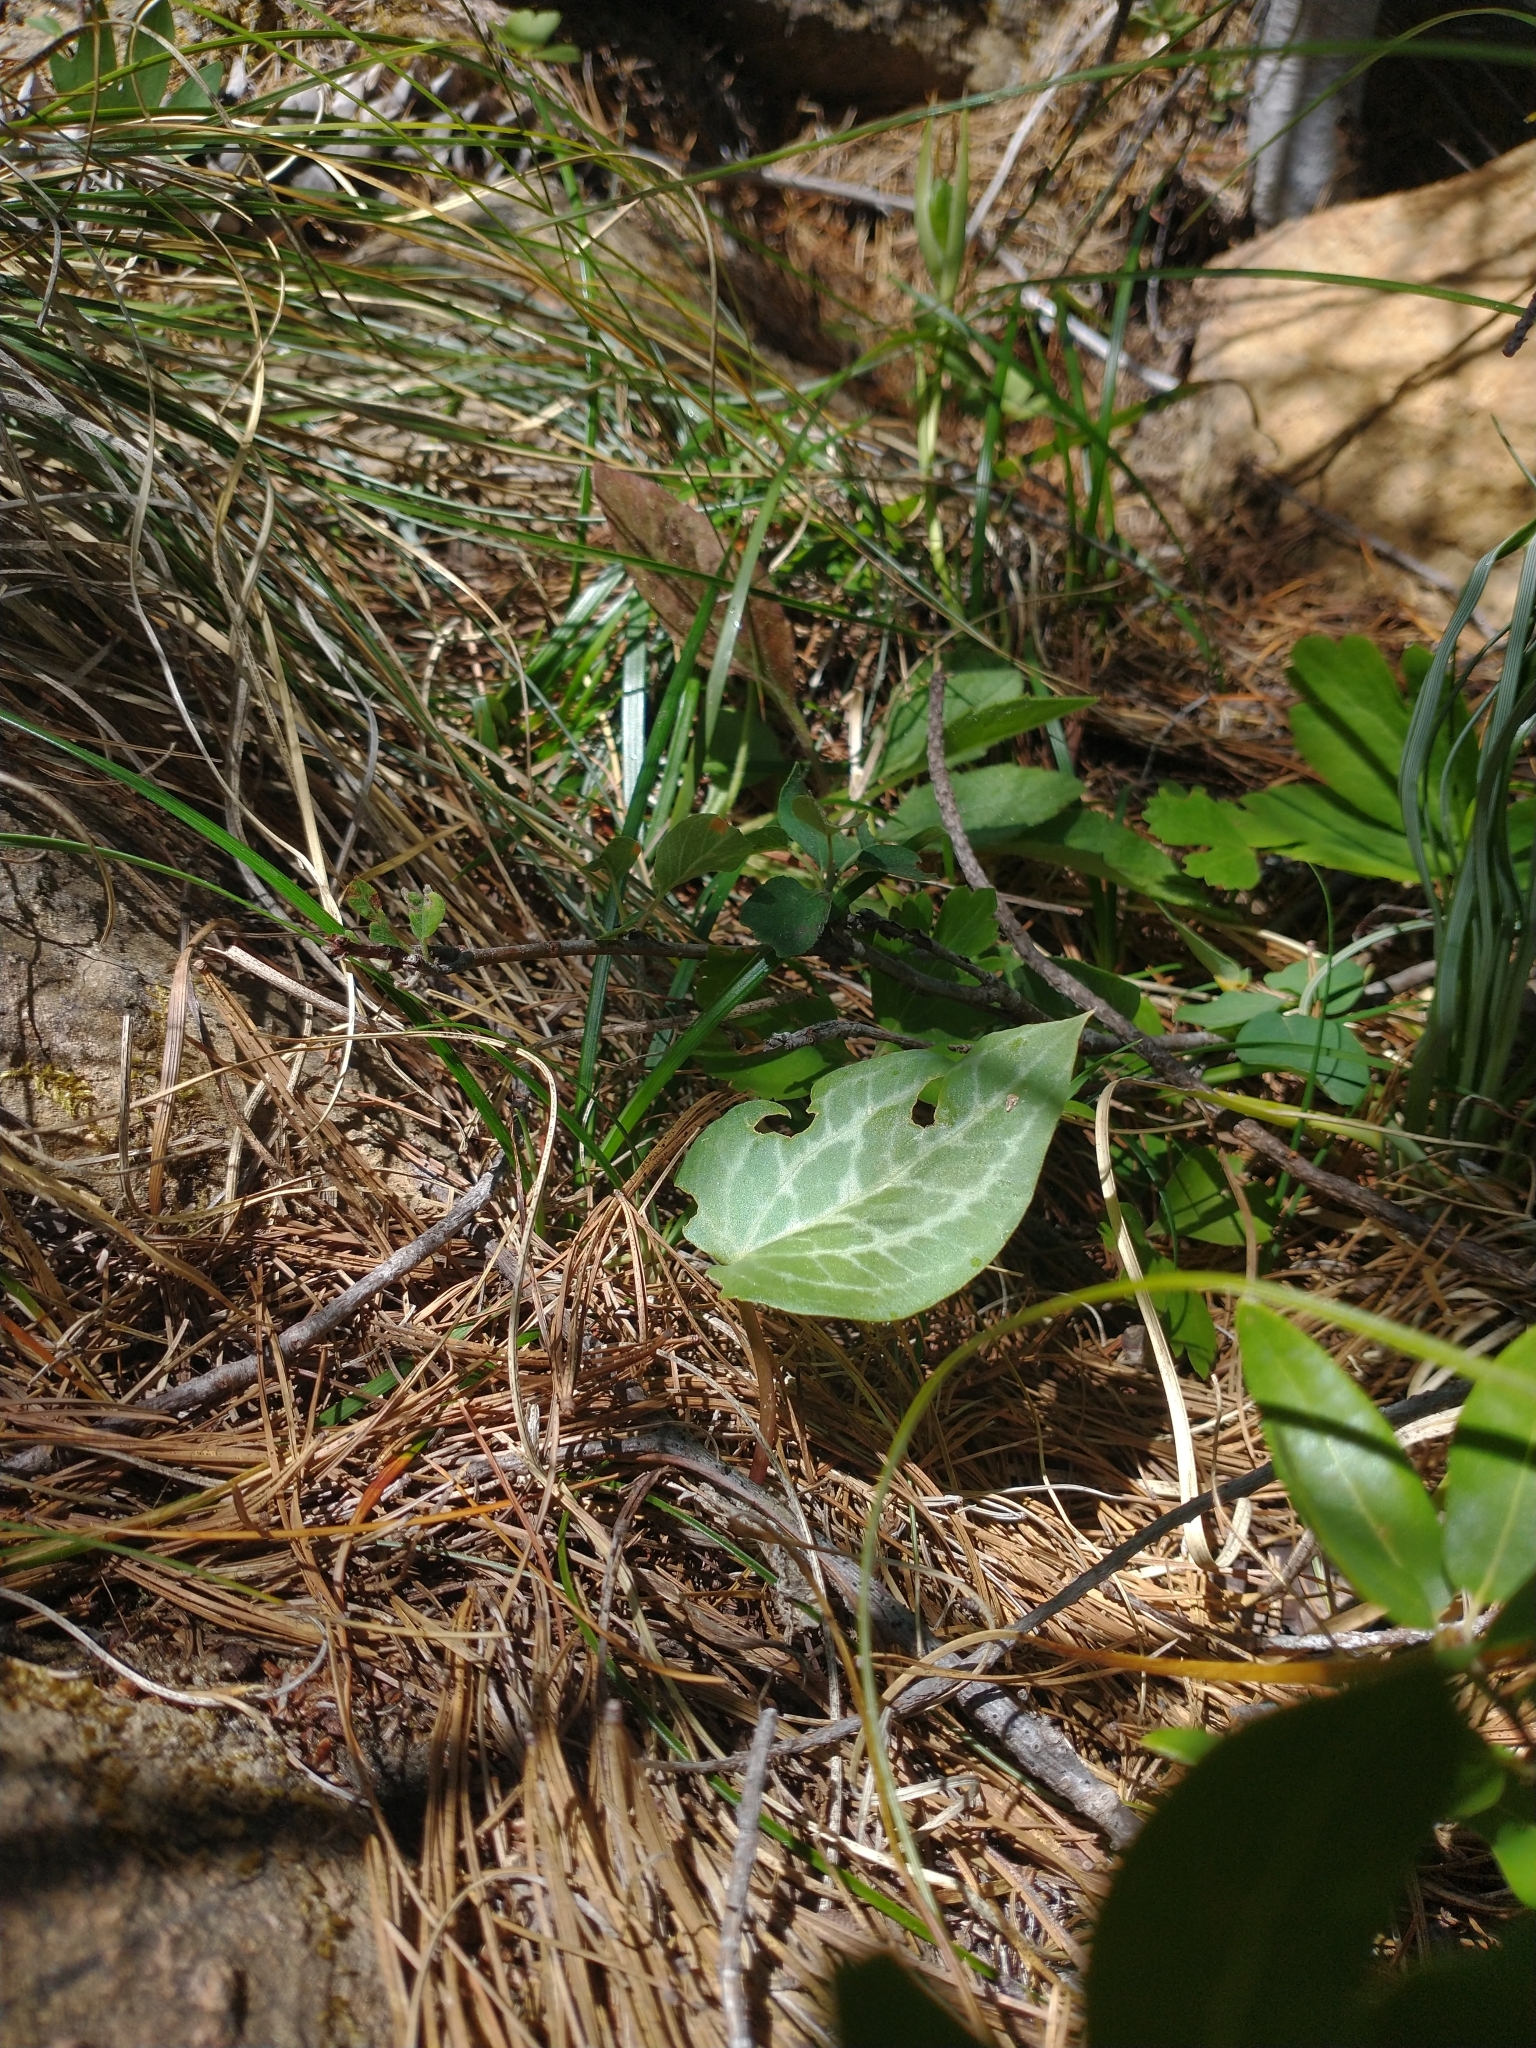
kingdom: Plantae
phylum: Tracheophyta
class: Liliopsida
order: Liliales
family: Melanthiaceae
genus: Pseudotrillium
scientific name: Pseudotrillium rivale
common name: Brook wakerobin
